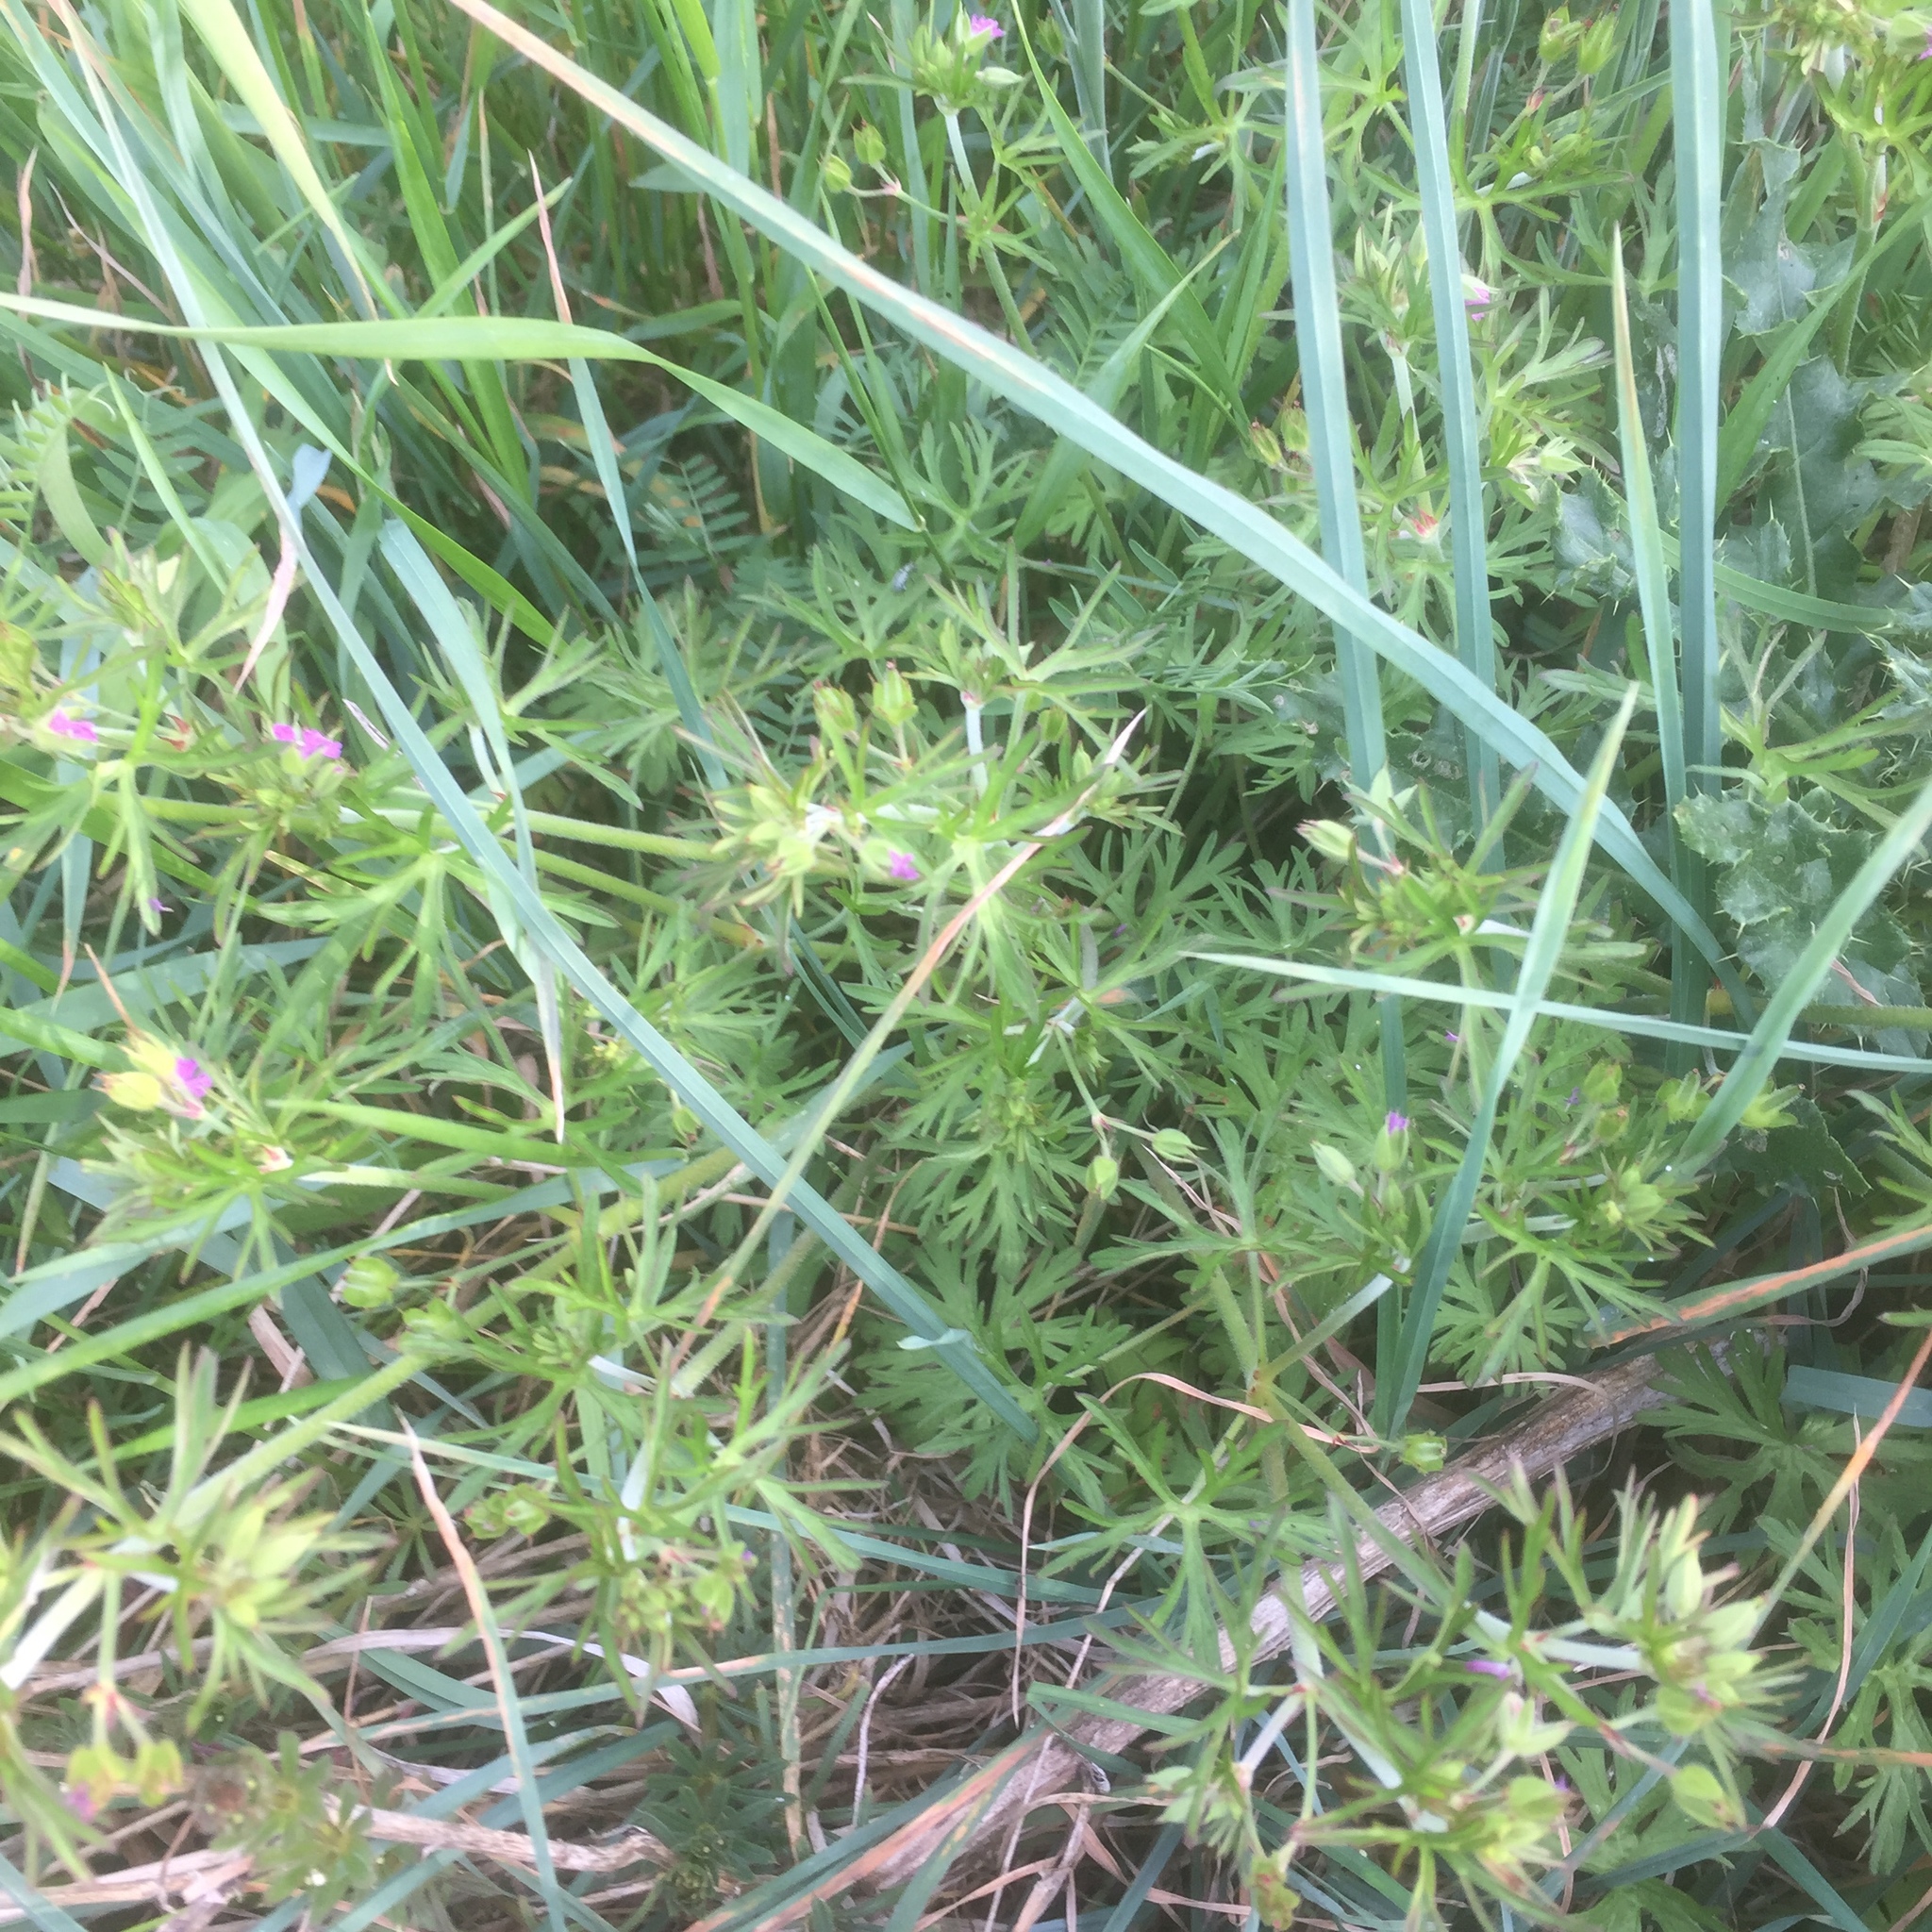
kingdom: Plantae
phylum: Tracheophyta
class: Magnoliopsida
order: Geraniales
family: Geraniaceae
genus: Geranium
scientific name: Geranium dissectum
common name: Cut-leaved crane's-bill
